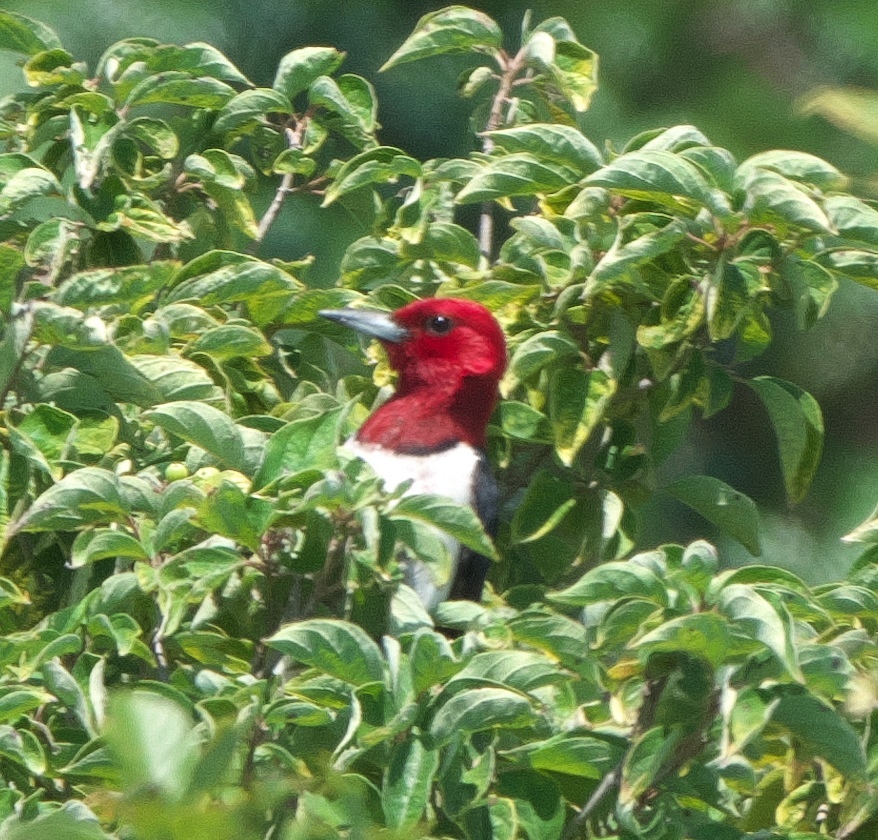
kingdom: Animalia
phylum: Chordata
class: Aves
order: Piciformes
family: Picidae
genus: Melanerpes
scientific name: Melanerpes erythrocephalus
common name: Red-headed woodpecker
